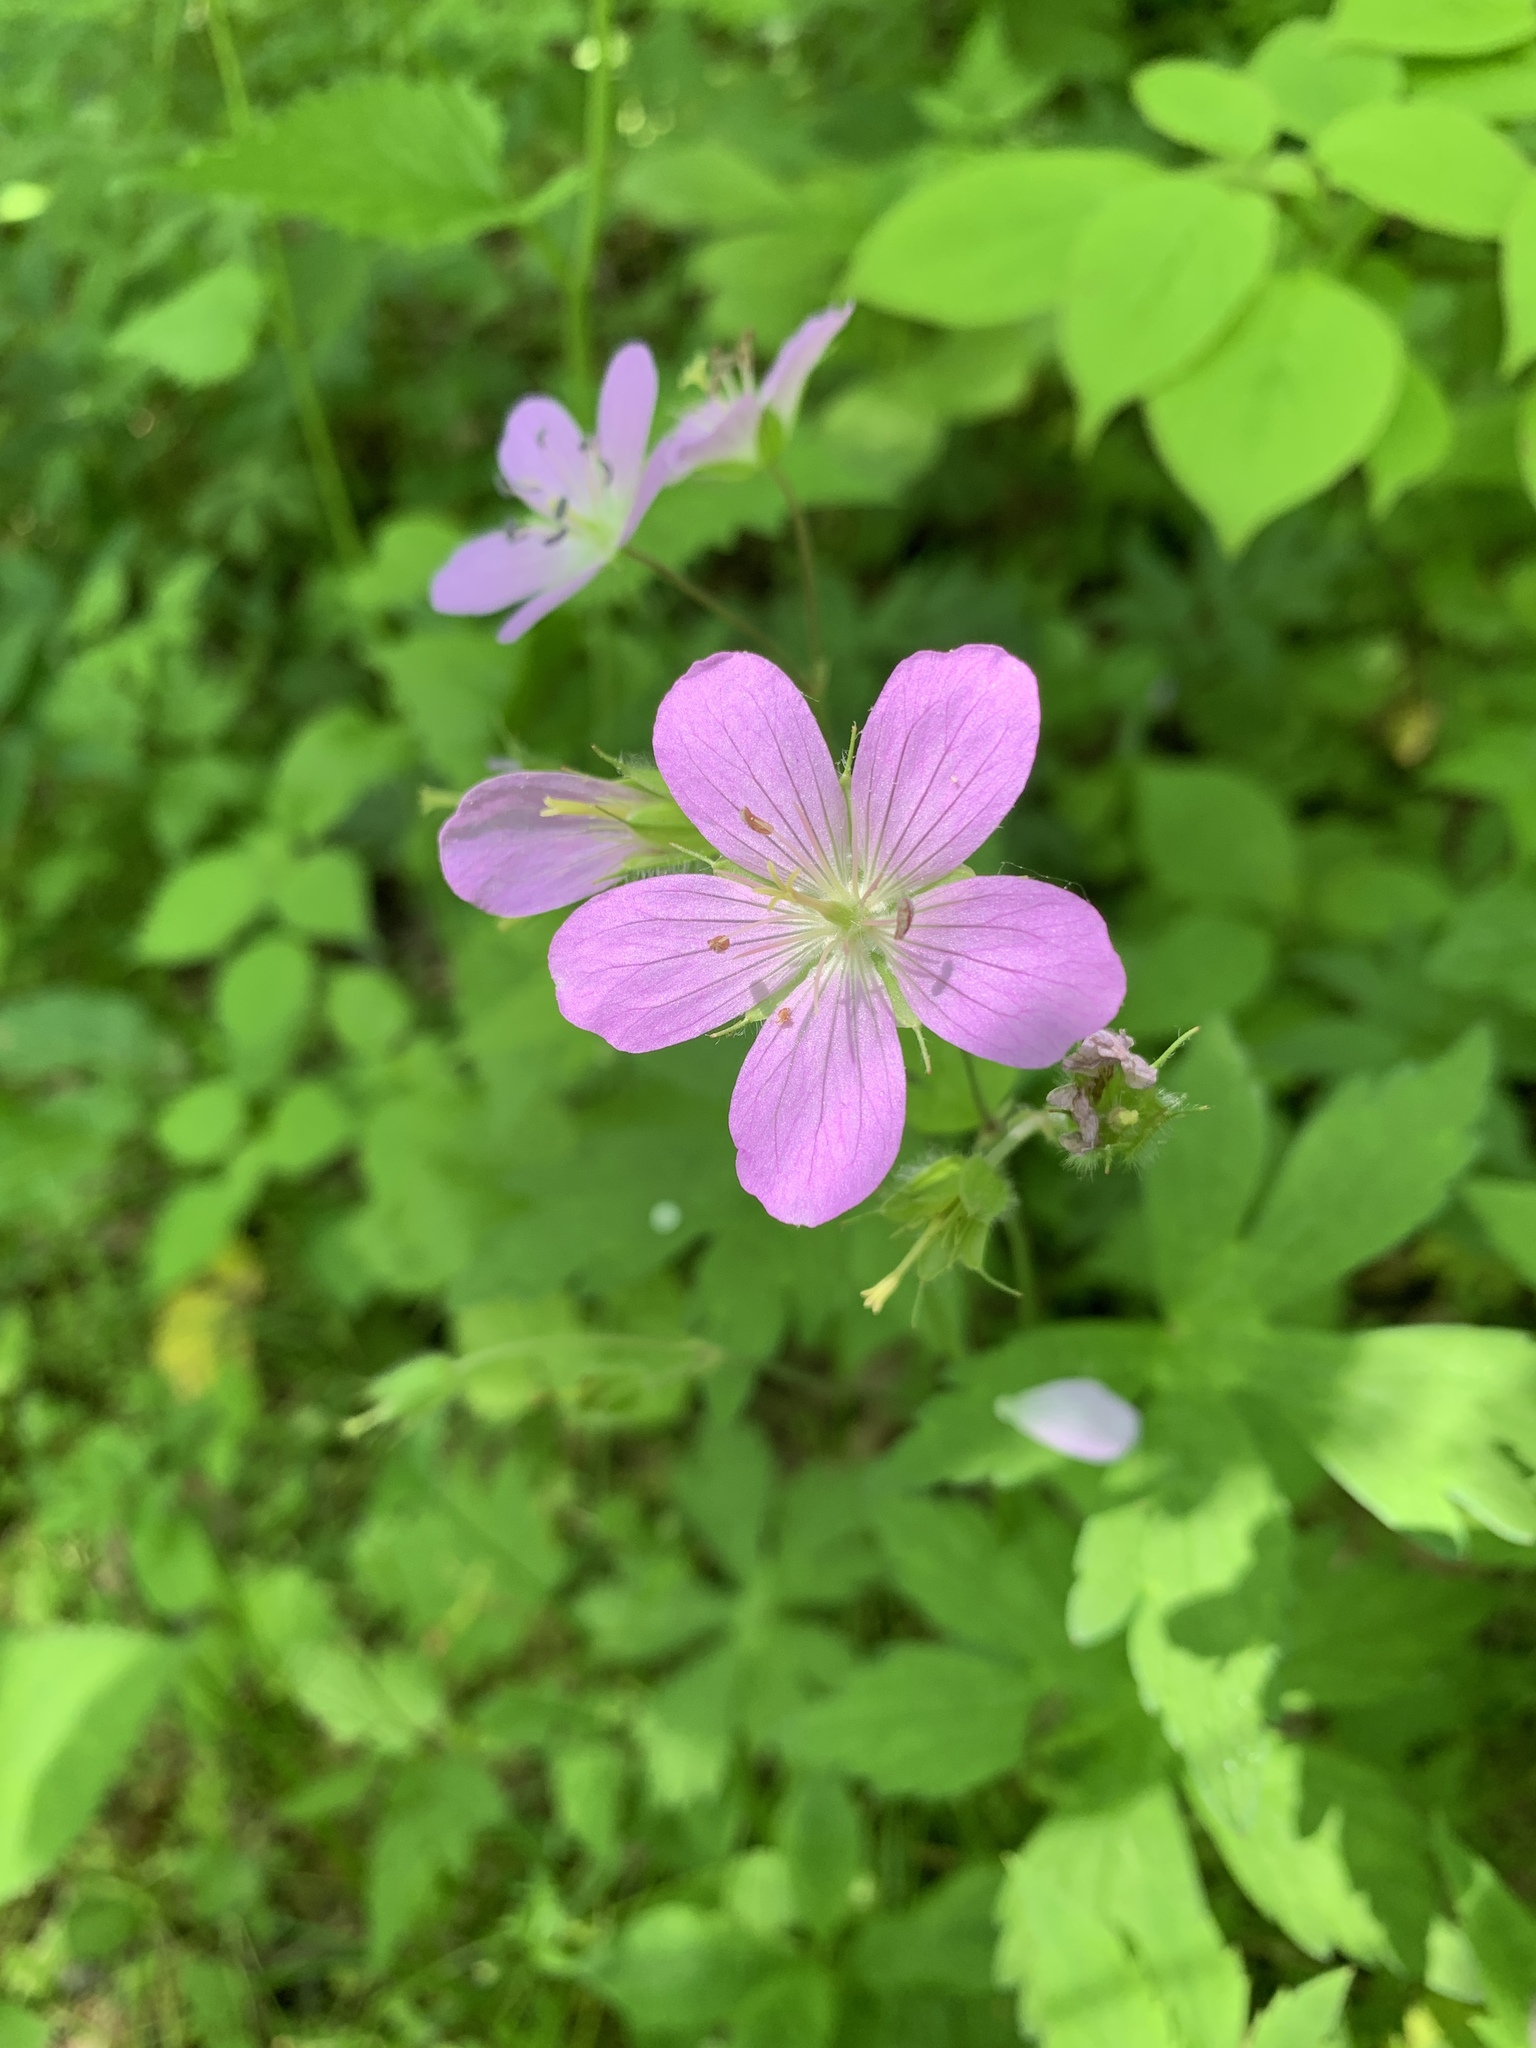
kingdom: Plantae
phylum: Tracheophyta
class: Magnoliopsida
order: Geraniales
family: Geraniaceae
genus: Geranium
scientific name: Geranium maculatum
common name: Spotted geranium
